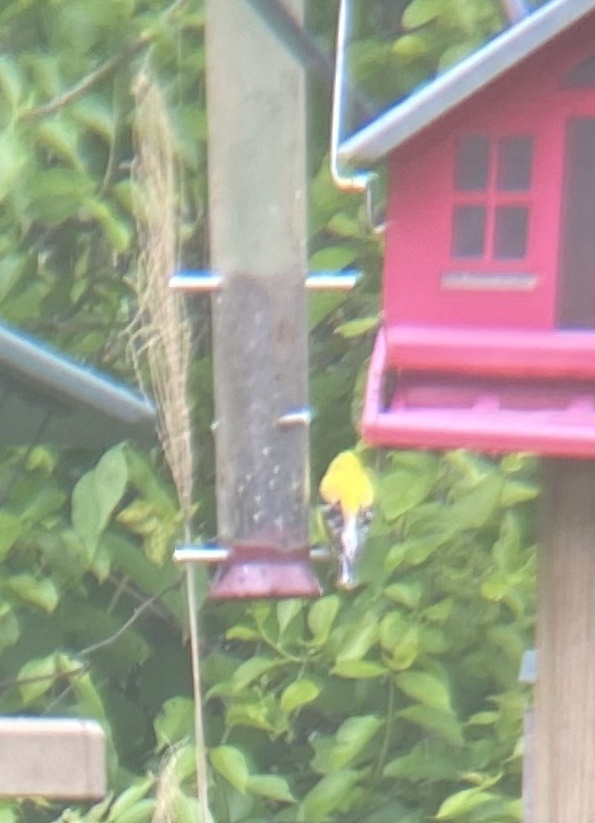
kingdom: Animalia
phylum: Chordata
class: Aves
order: Passeriformes
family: Fringillidae
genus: Spinus
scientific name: Spinus tristis
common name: American goldfinch
